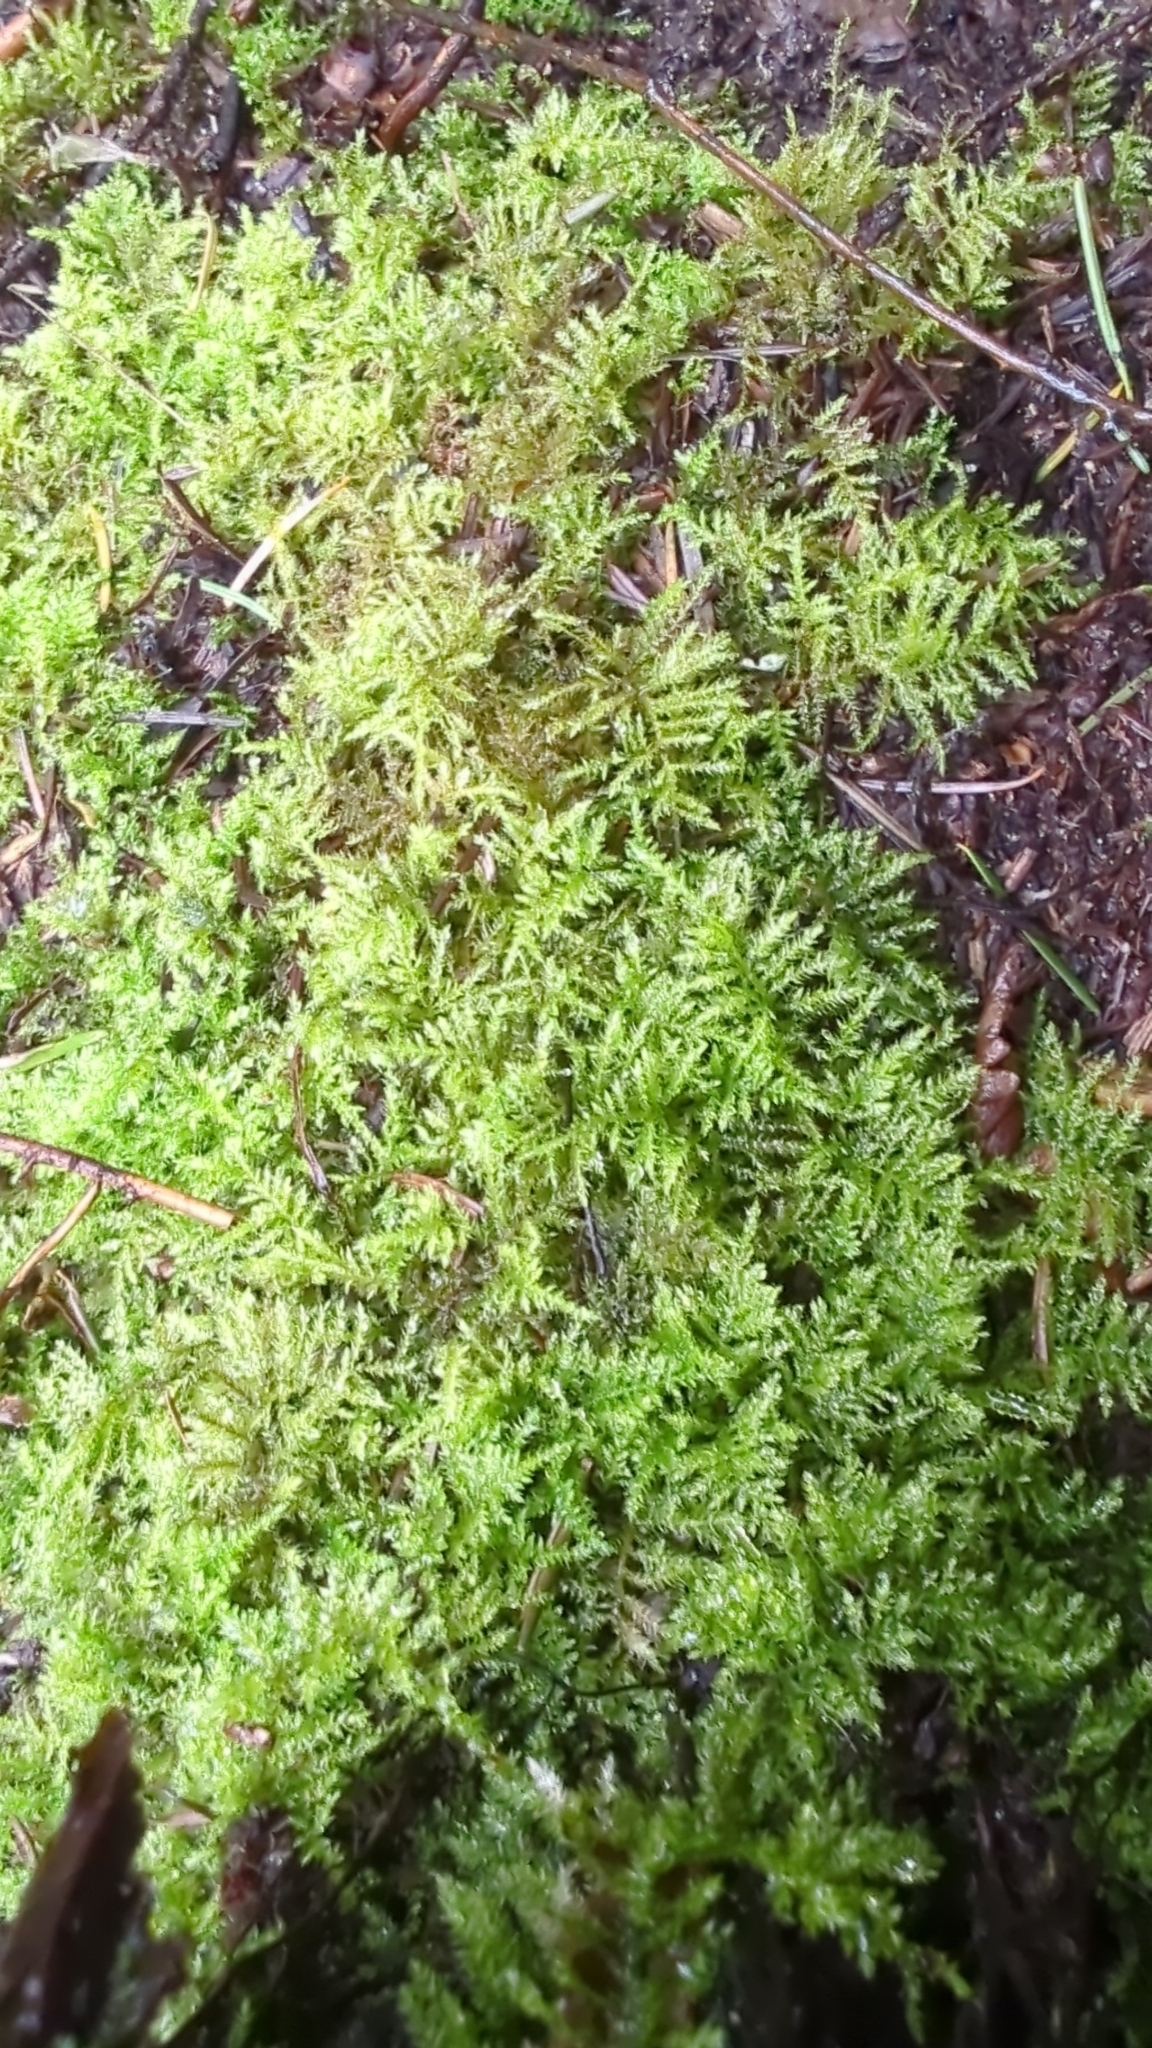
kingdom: Plantae
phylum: Bryophyta
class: Bryopsida
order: Hypnales
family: Brachytheciaceae
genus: Kindbergia
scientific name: Kindbergia praelonga
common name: Slender beaked moss
